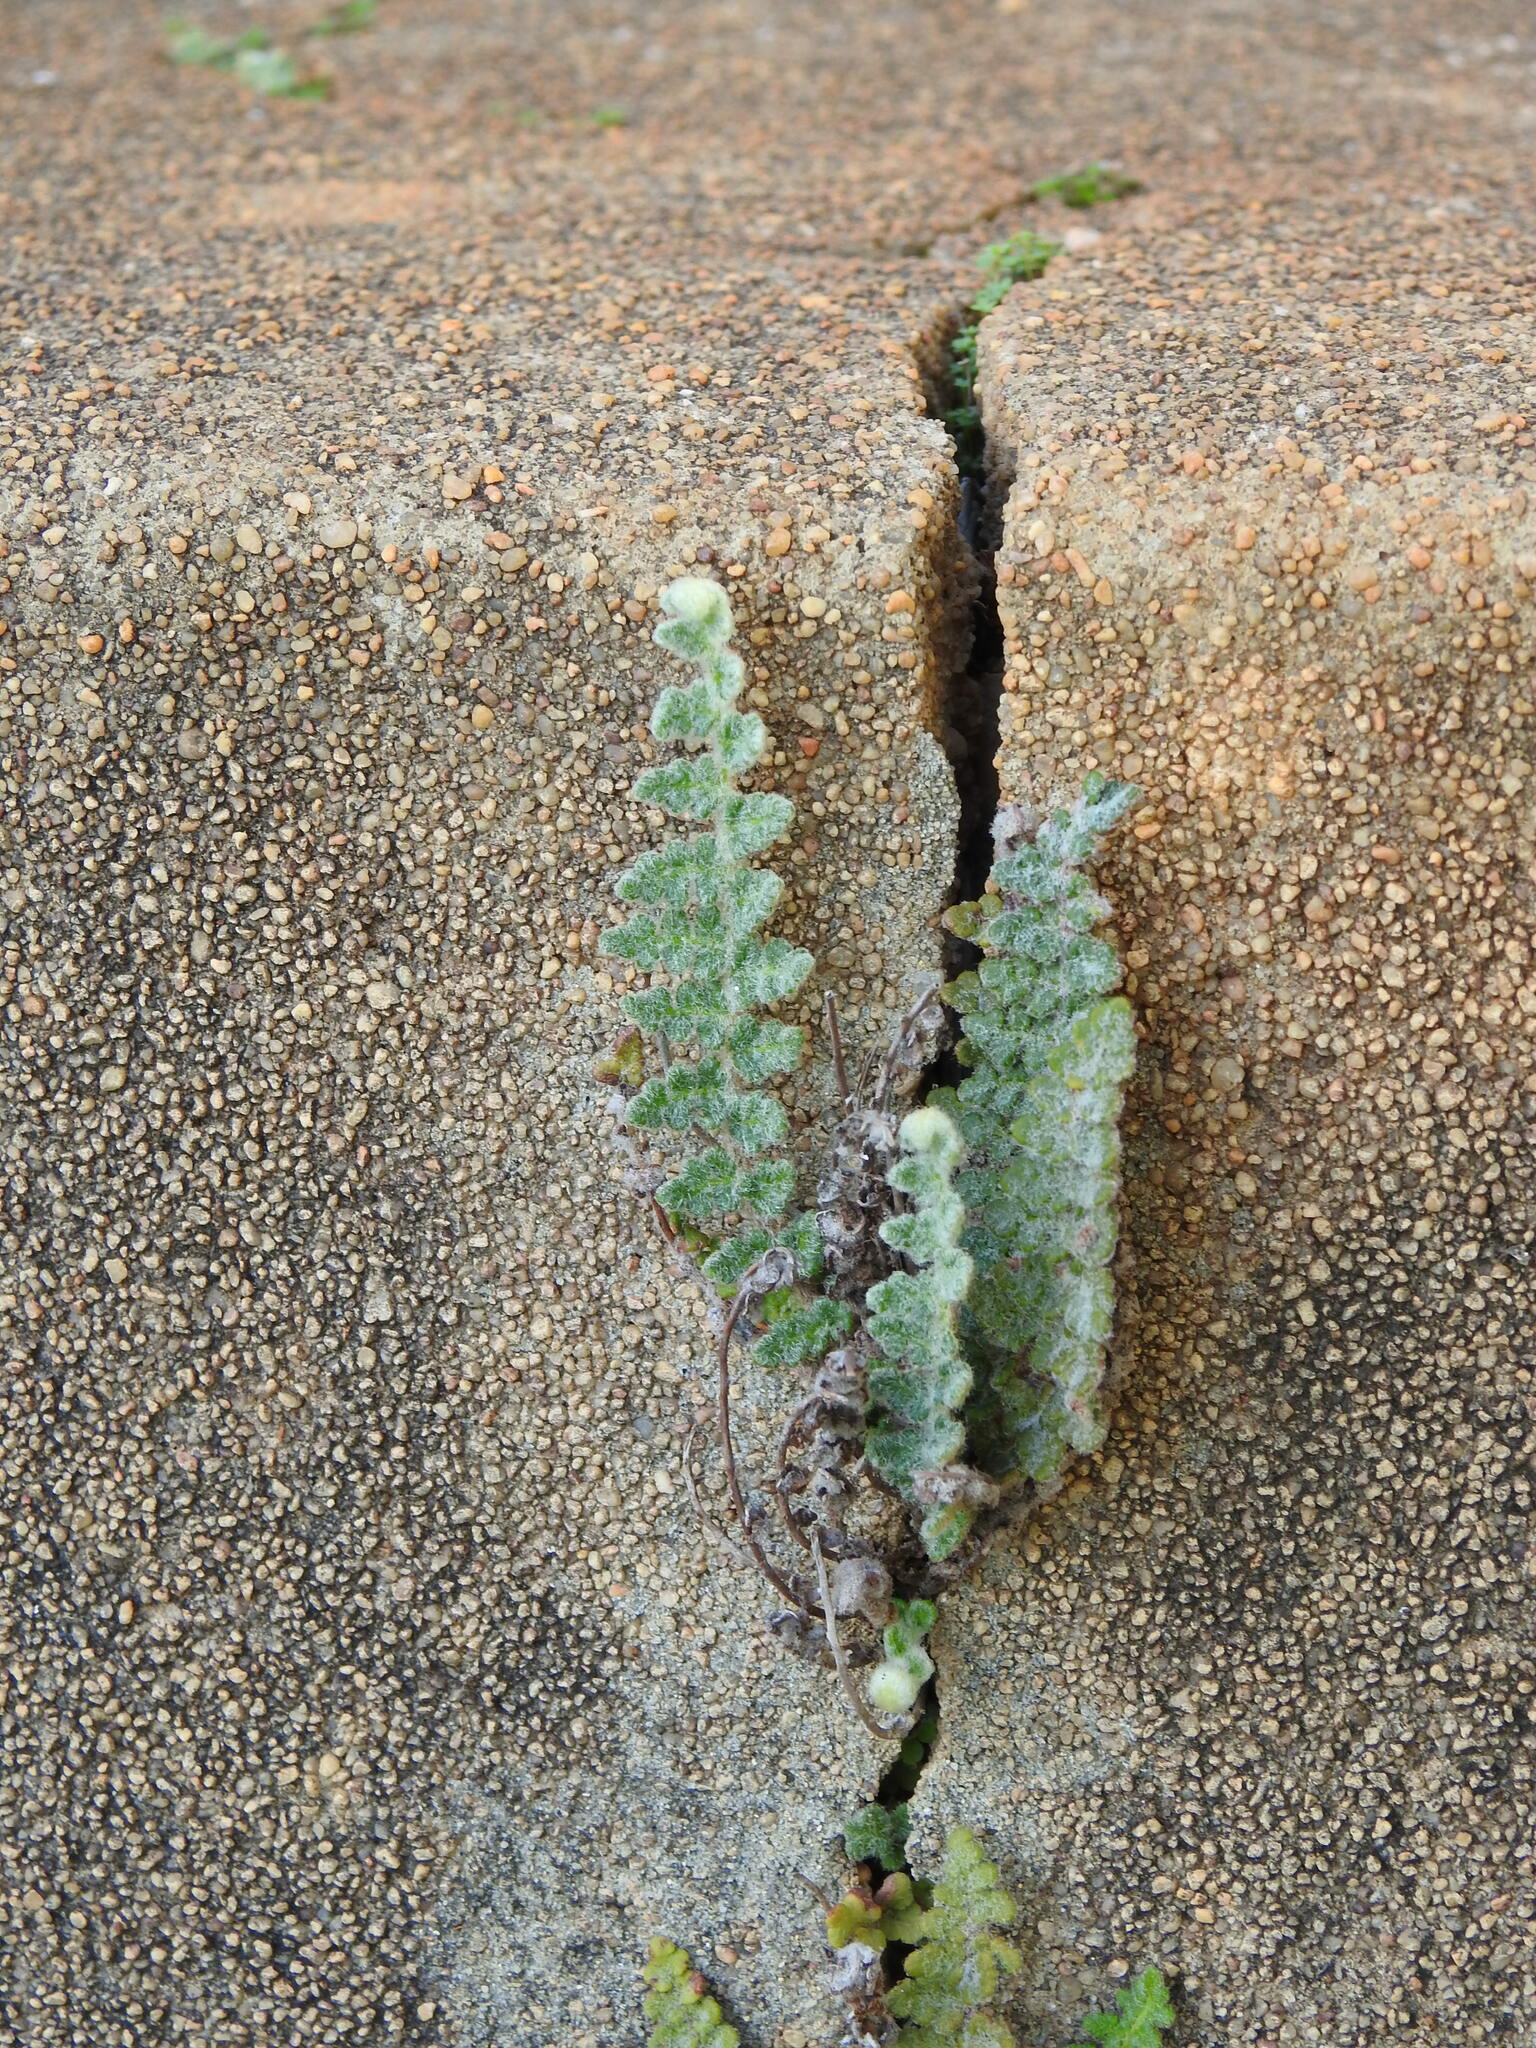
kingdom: Plantae
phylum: Tracheophyta
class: Polypodiopsida
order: Polypodiales
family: Pteridaceae
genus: Cosentinia
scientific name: Cosentinia vellea
